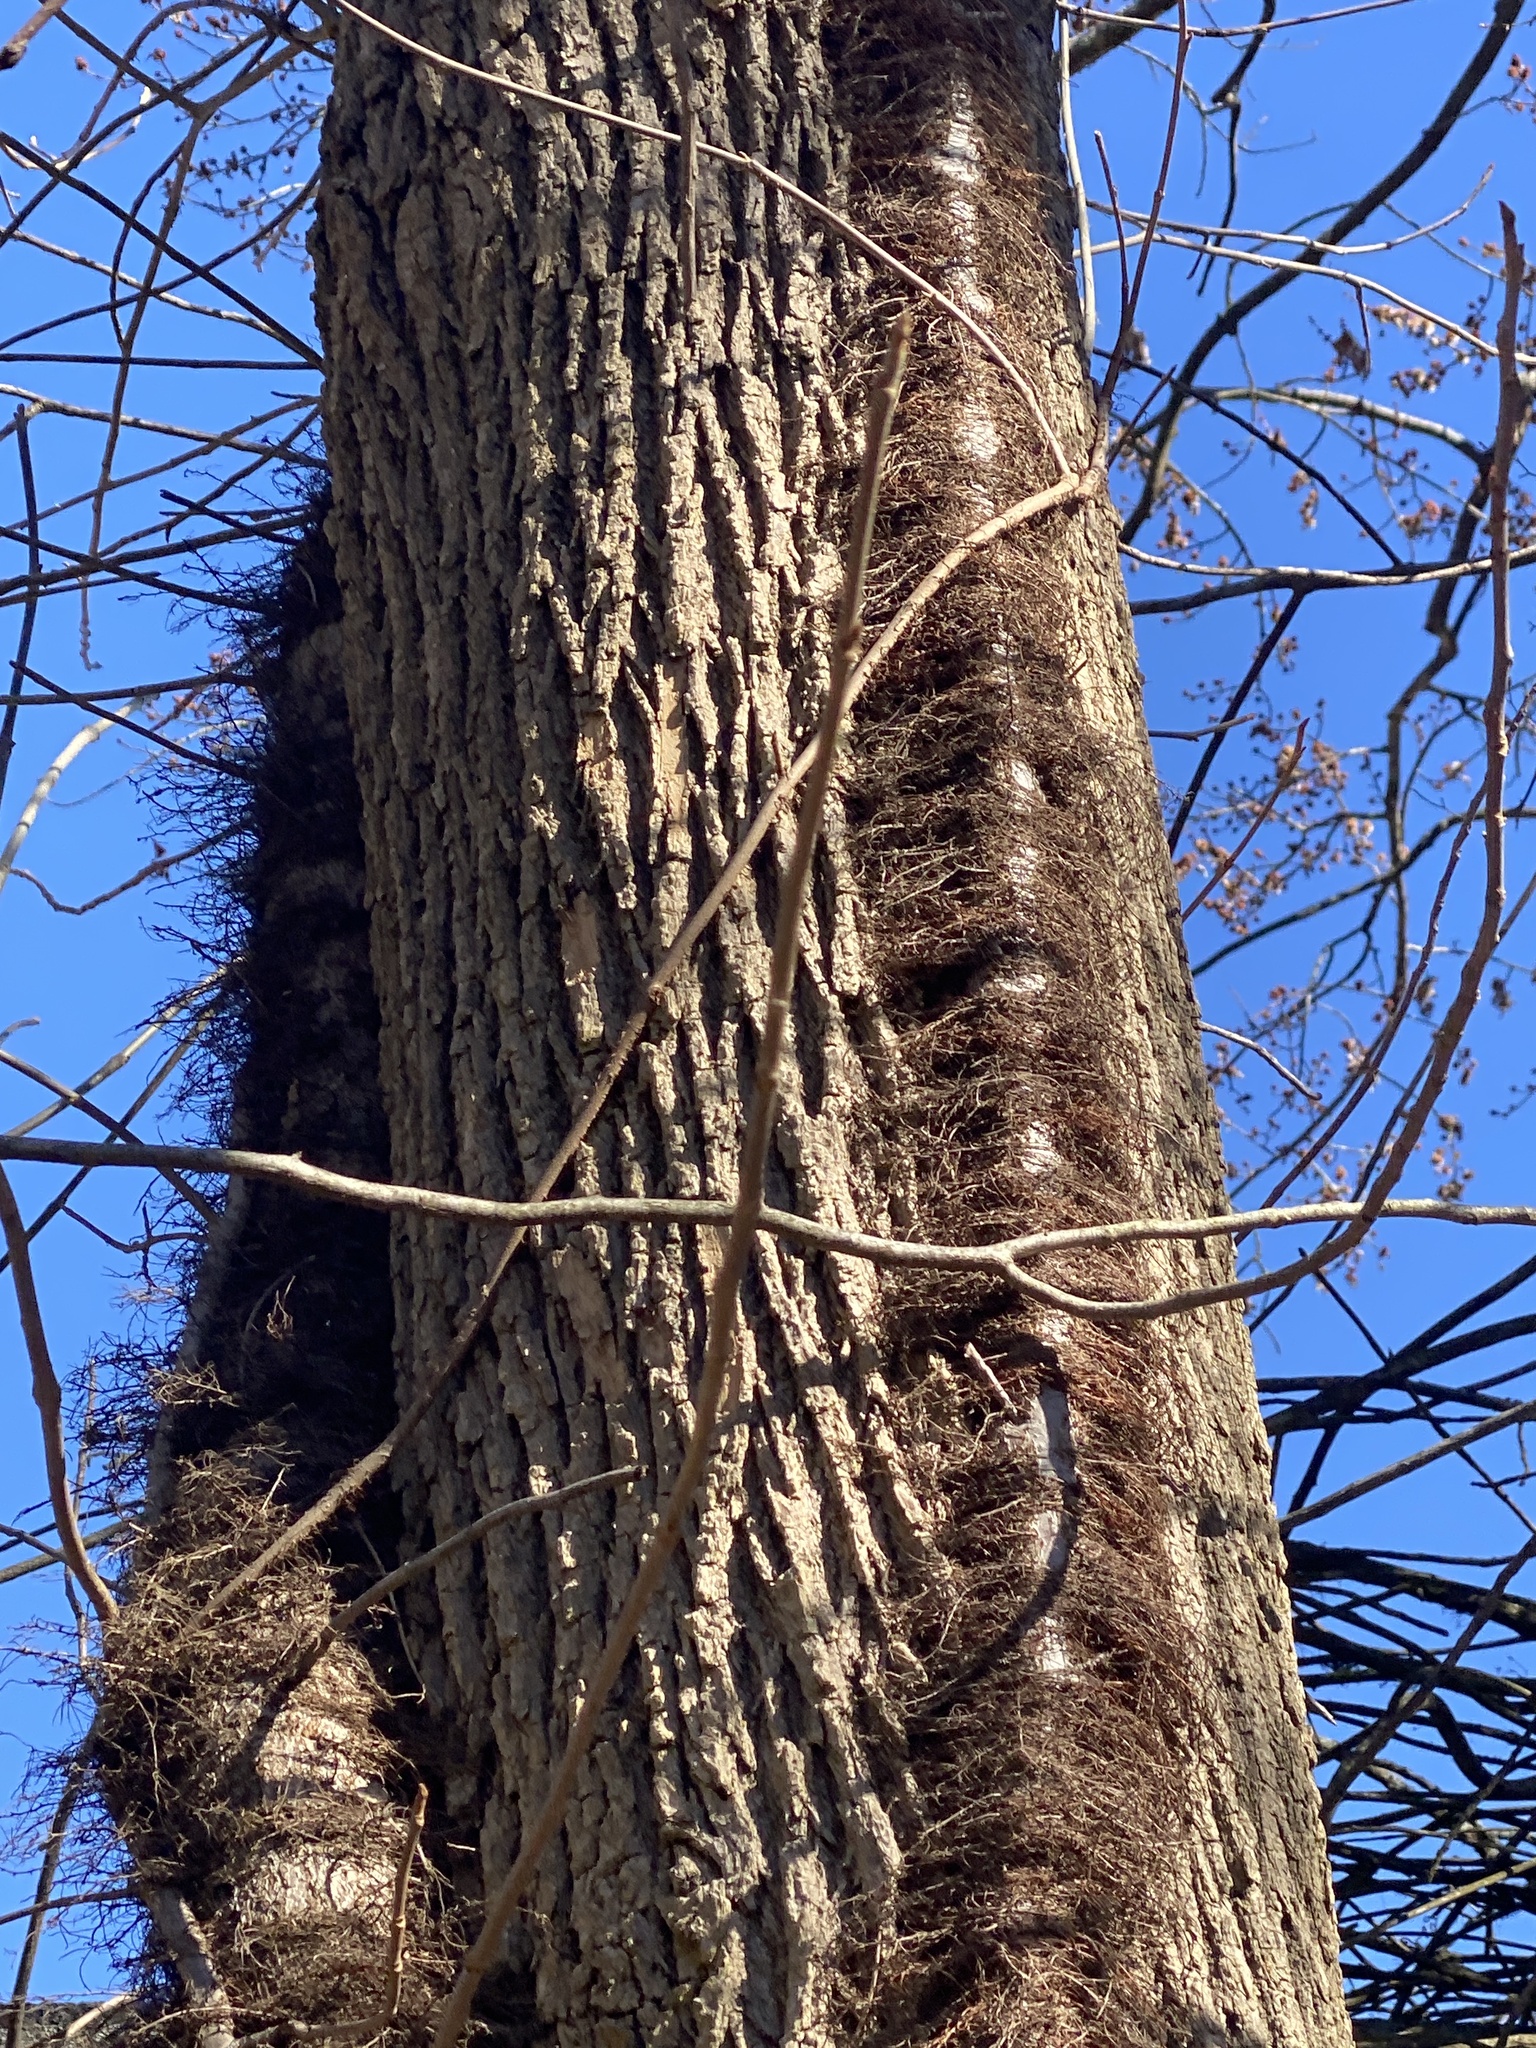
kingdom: Plantae
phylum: Tracheophyta
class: Magnoliopsida
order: Sapindales
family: Anacardiaceae
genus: Toxicodendron
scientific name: Toxicodendron radicans
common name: Poison ivy
